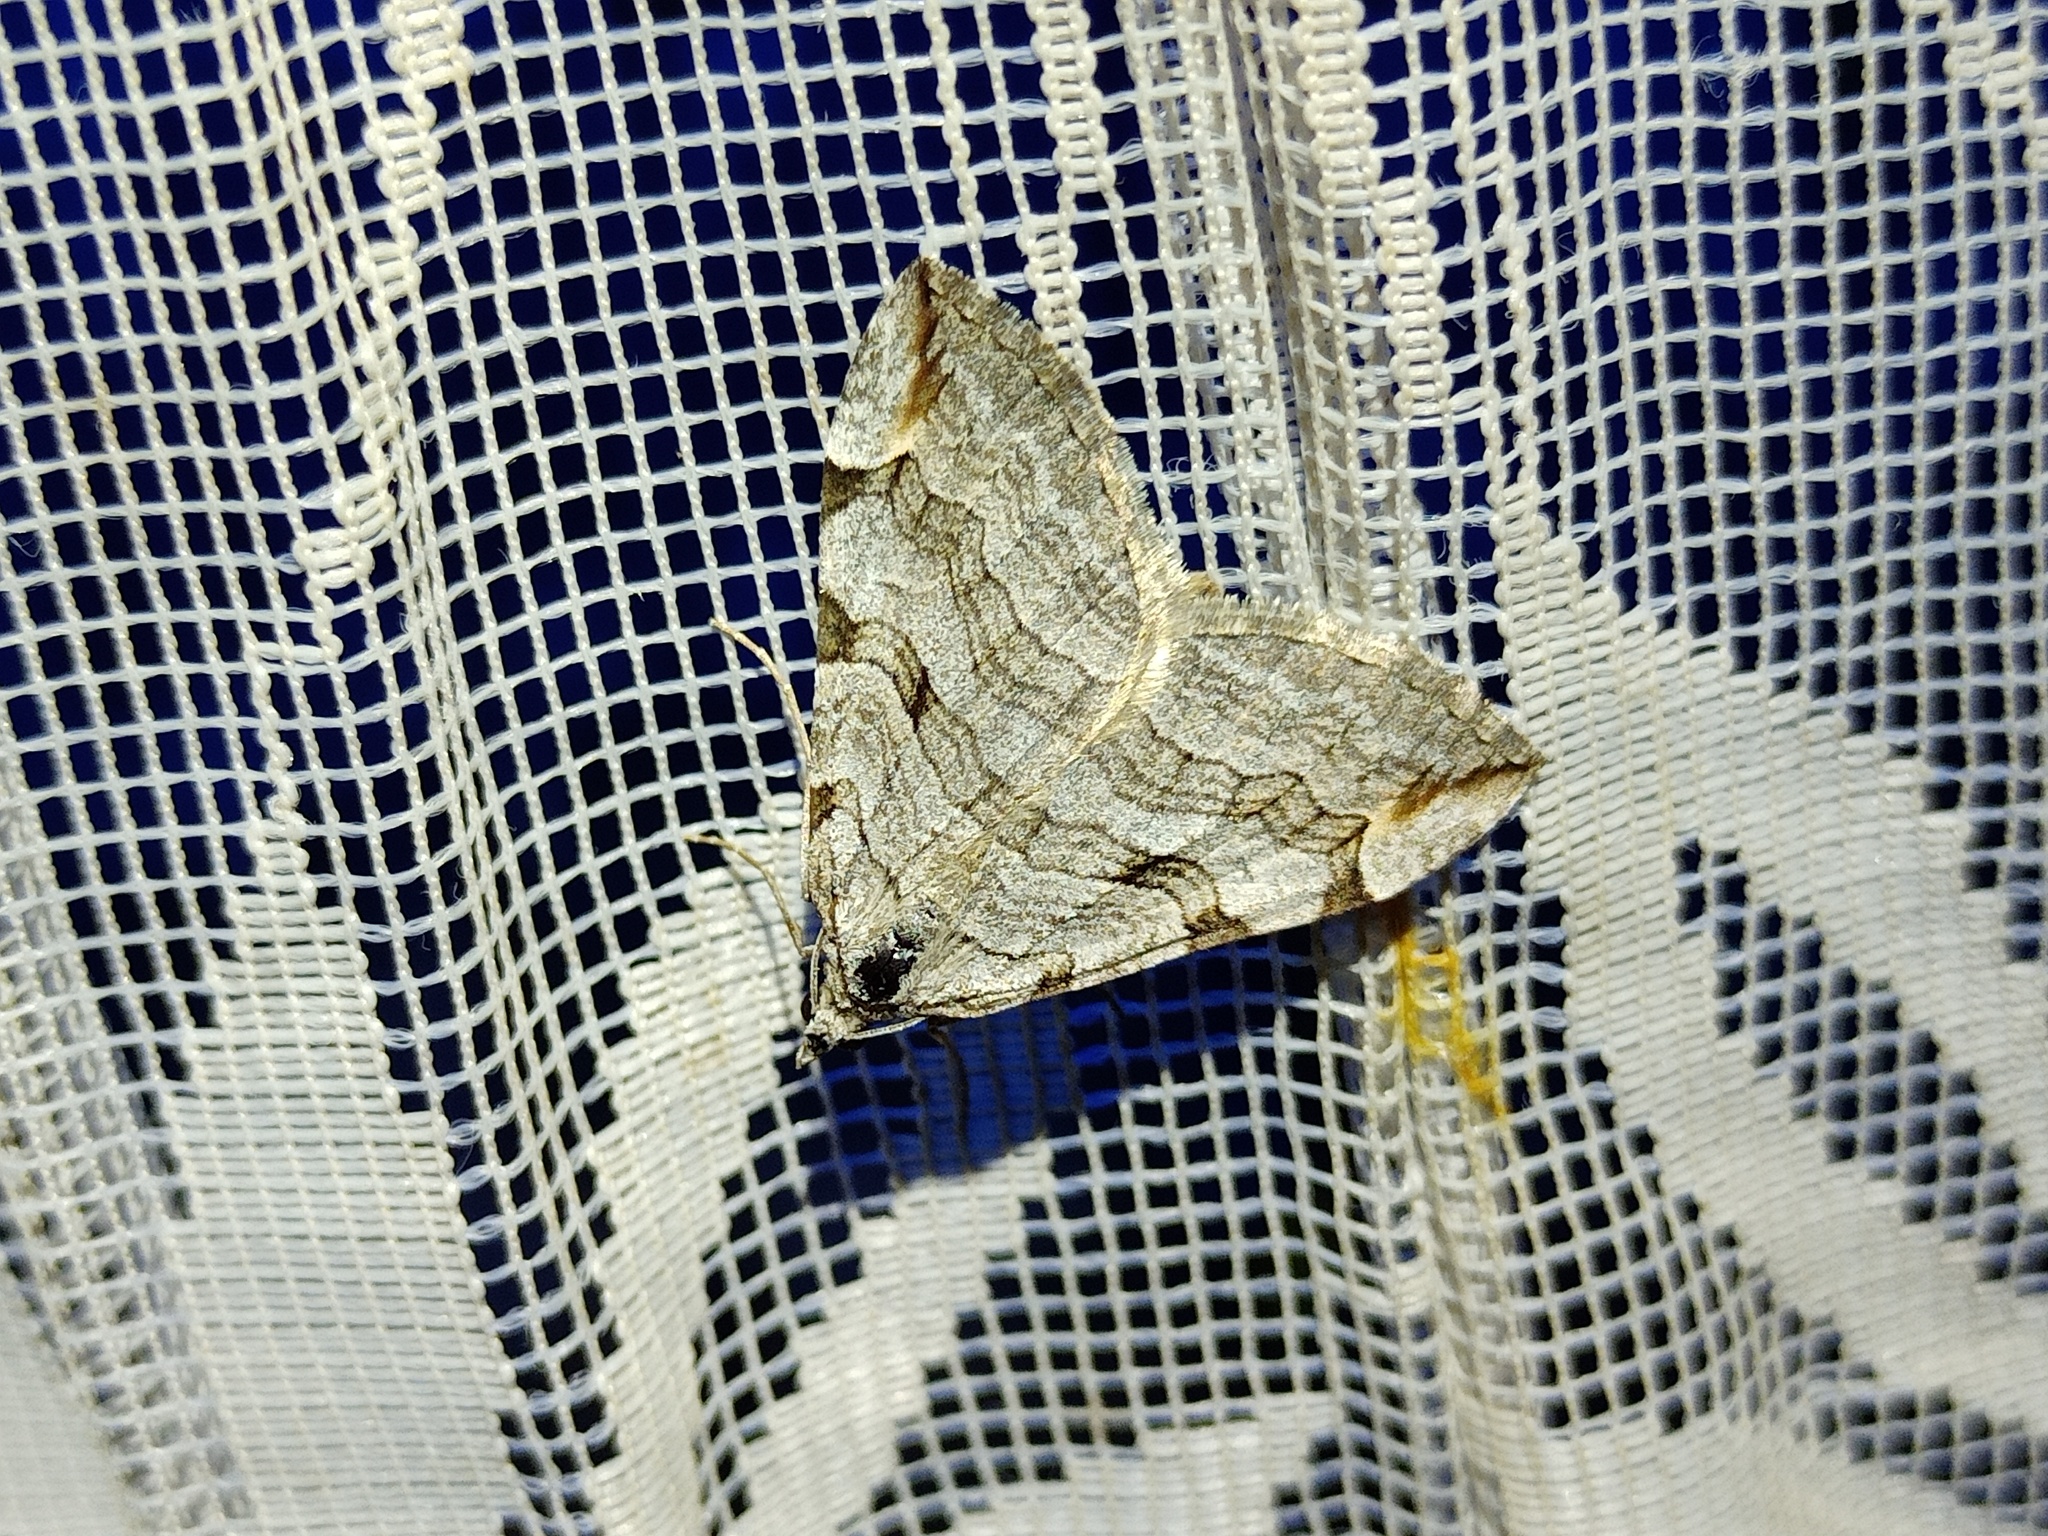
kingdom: Animalia
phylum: Arthropoda
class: Insecta
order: Lepidoptera
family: Geometridae
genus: Aplocera
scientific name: Aplocera plagiata
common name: Treble-bar
